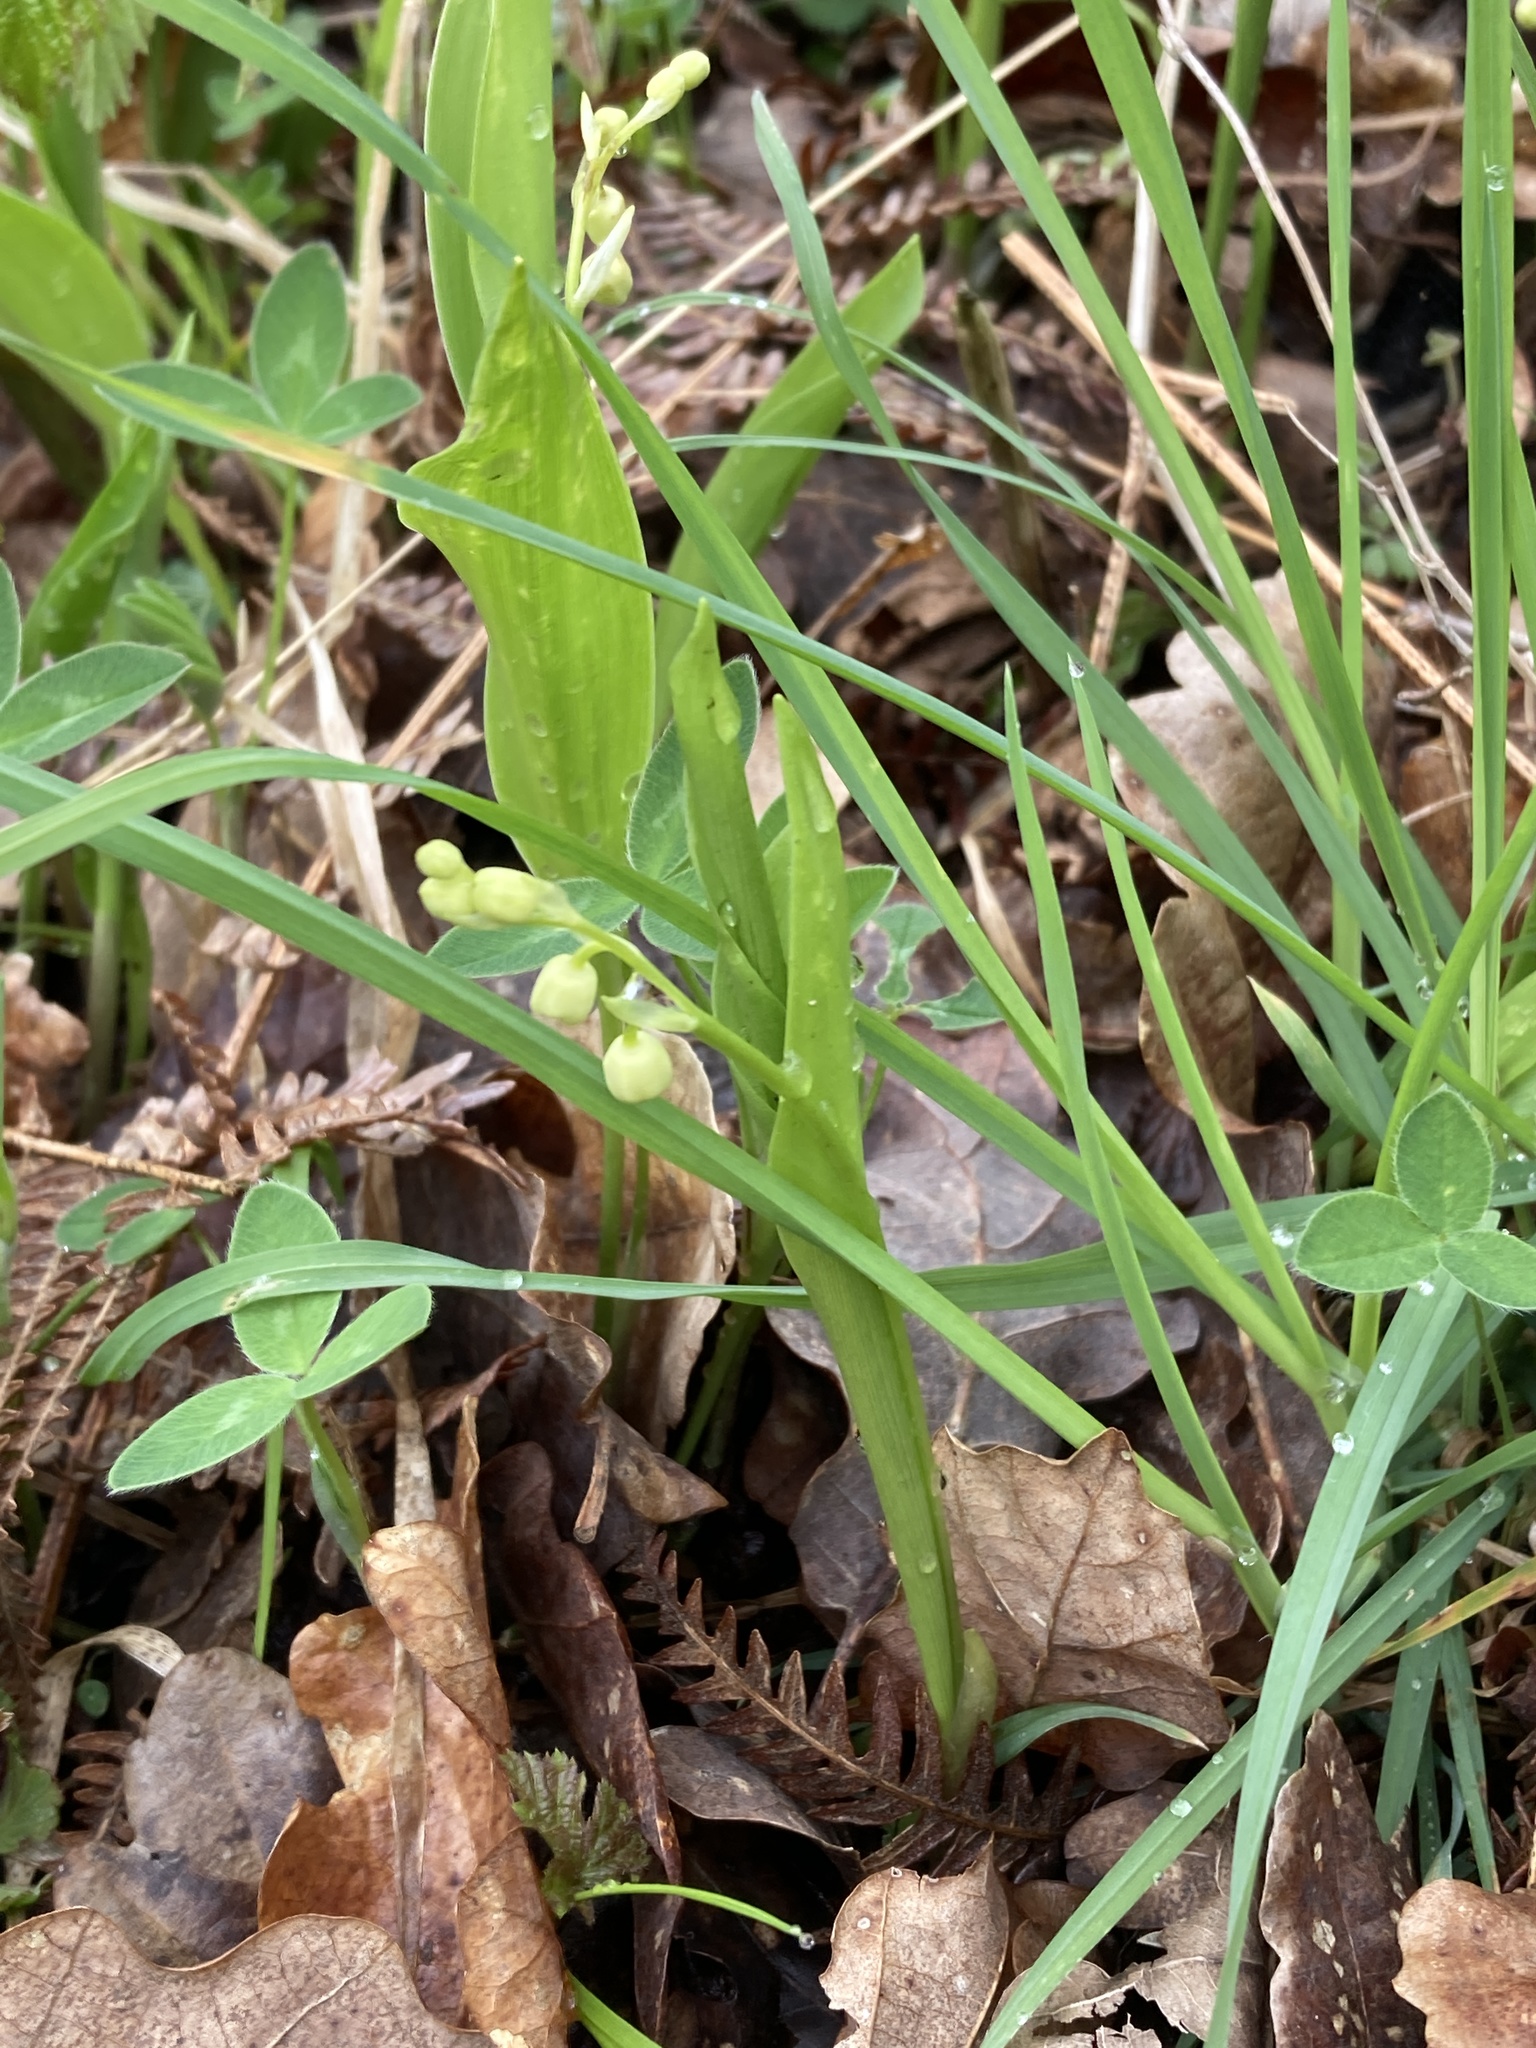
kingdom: Plantae
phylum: Tracheophyta
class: Liliopsida
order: Asparagales
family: Asparagaceae
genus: Convallaria
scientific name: Convallaria majalis
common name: Lily-of-the-valley
